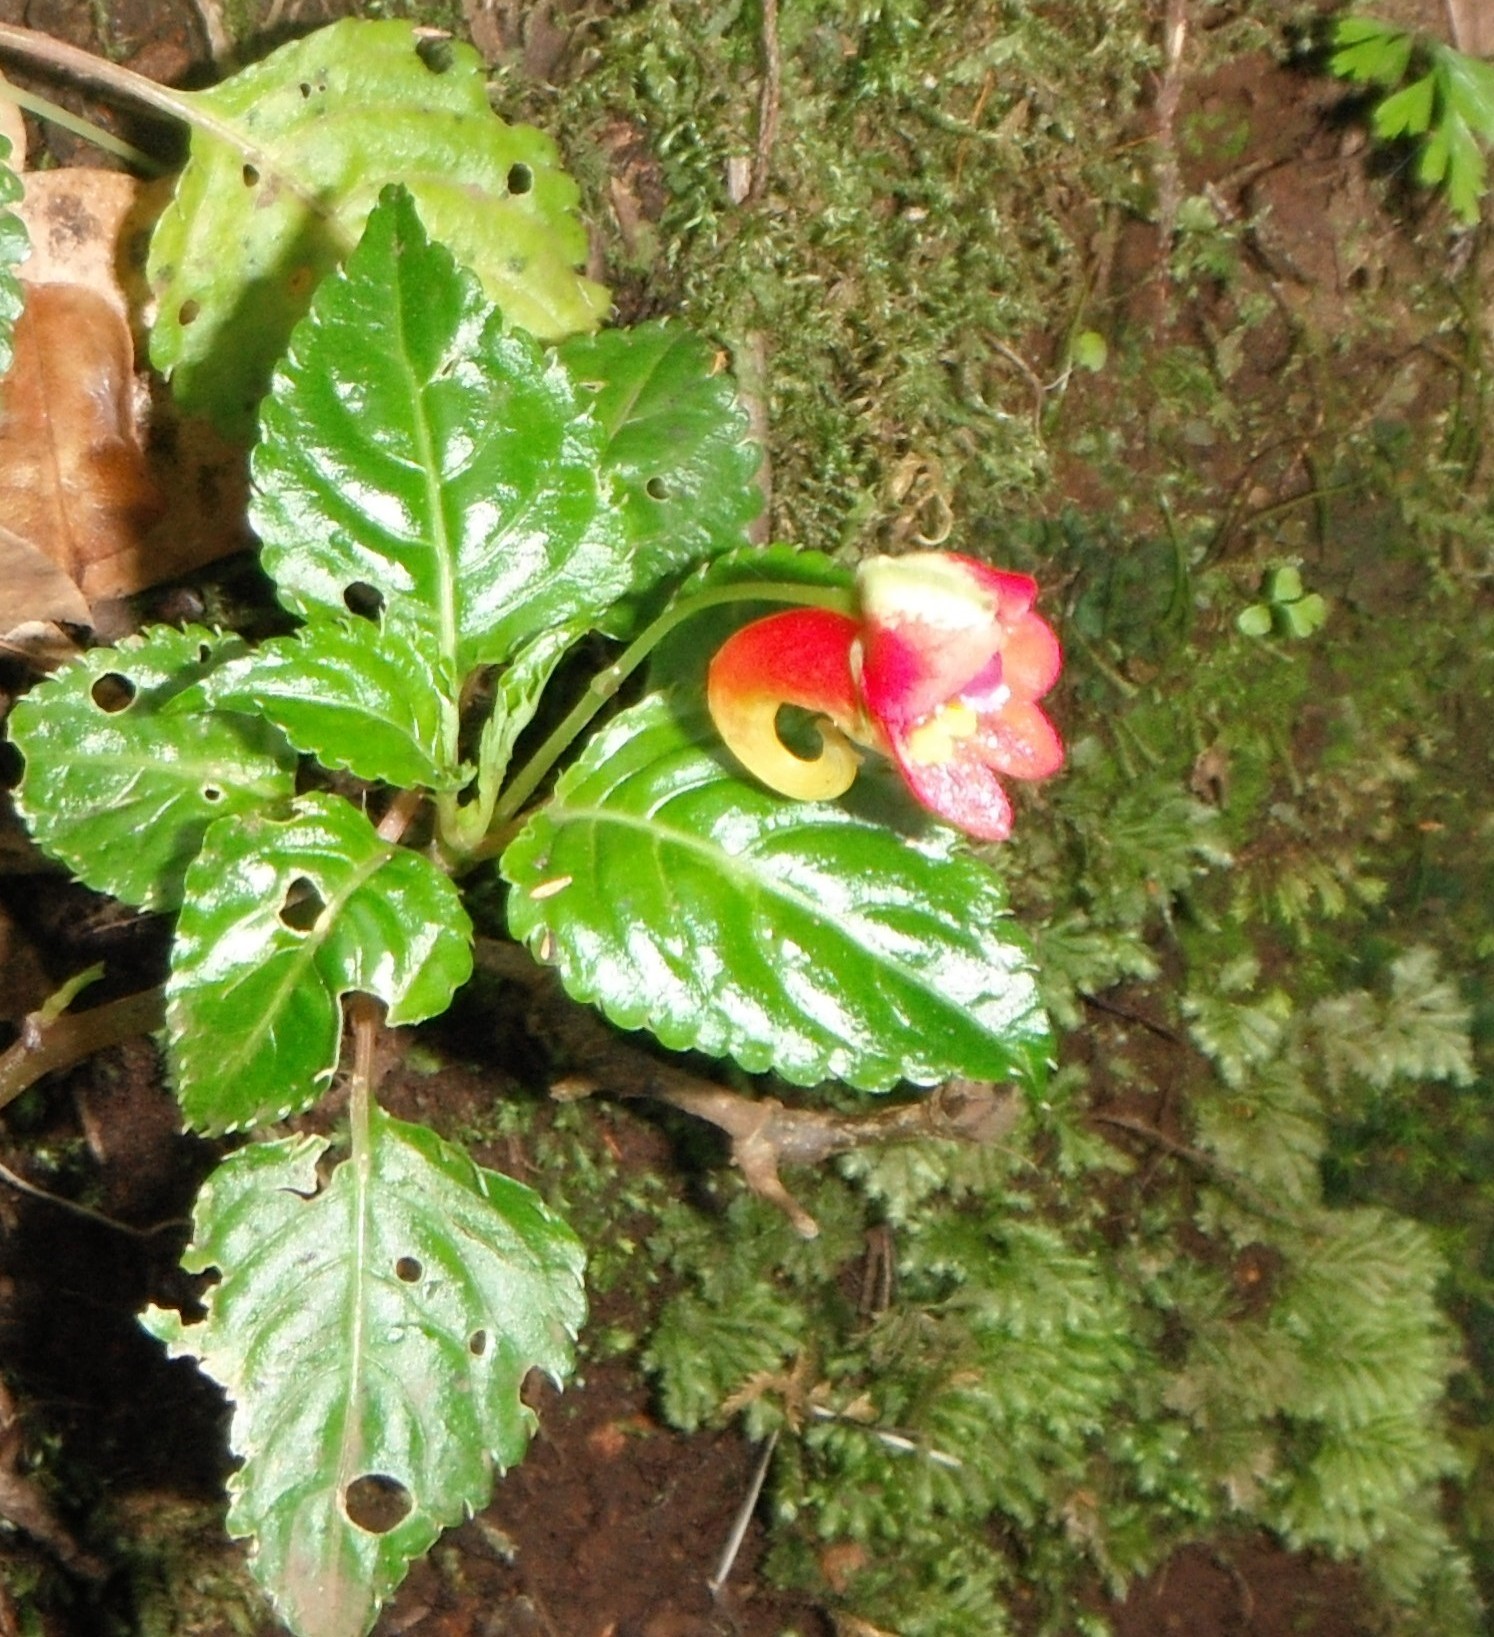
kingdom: Plantae
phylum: Tracheophyta
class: Magnoliopsida
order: Ericales
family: Balsaminaceae
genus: Impatiens
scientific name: Impatiens kilimanjari
